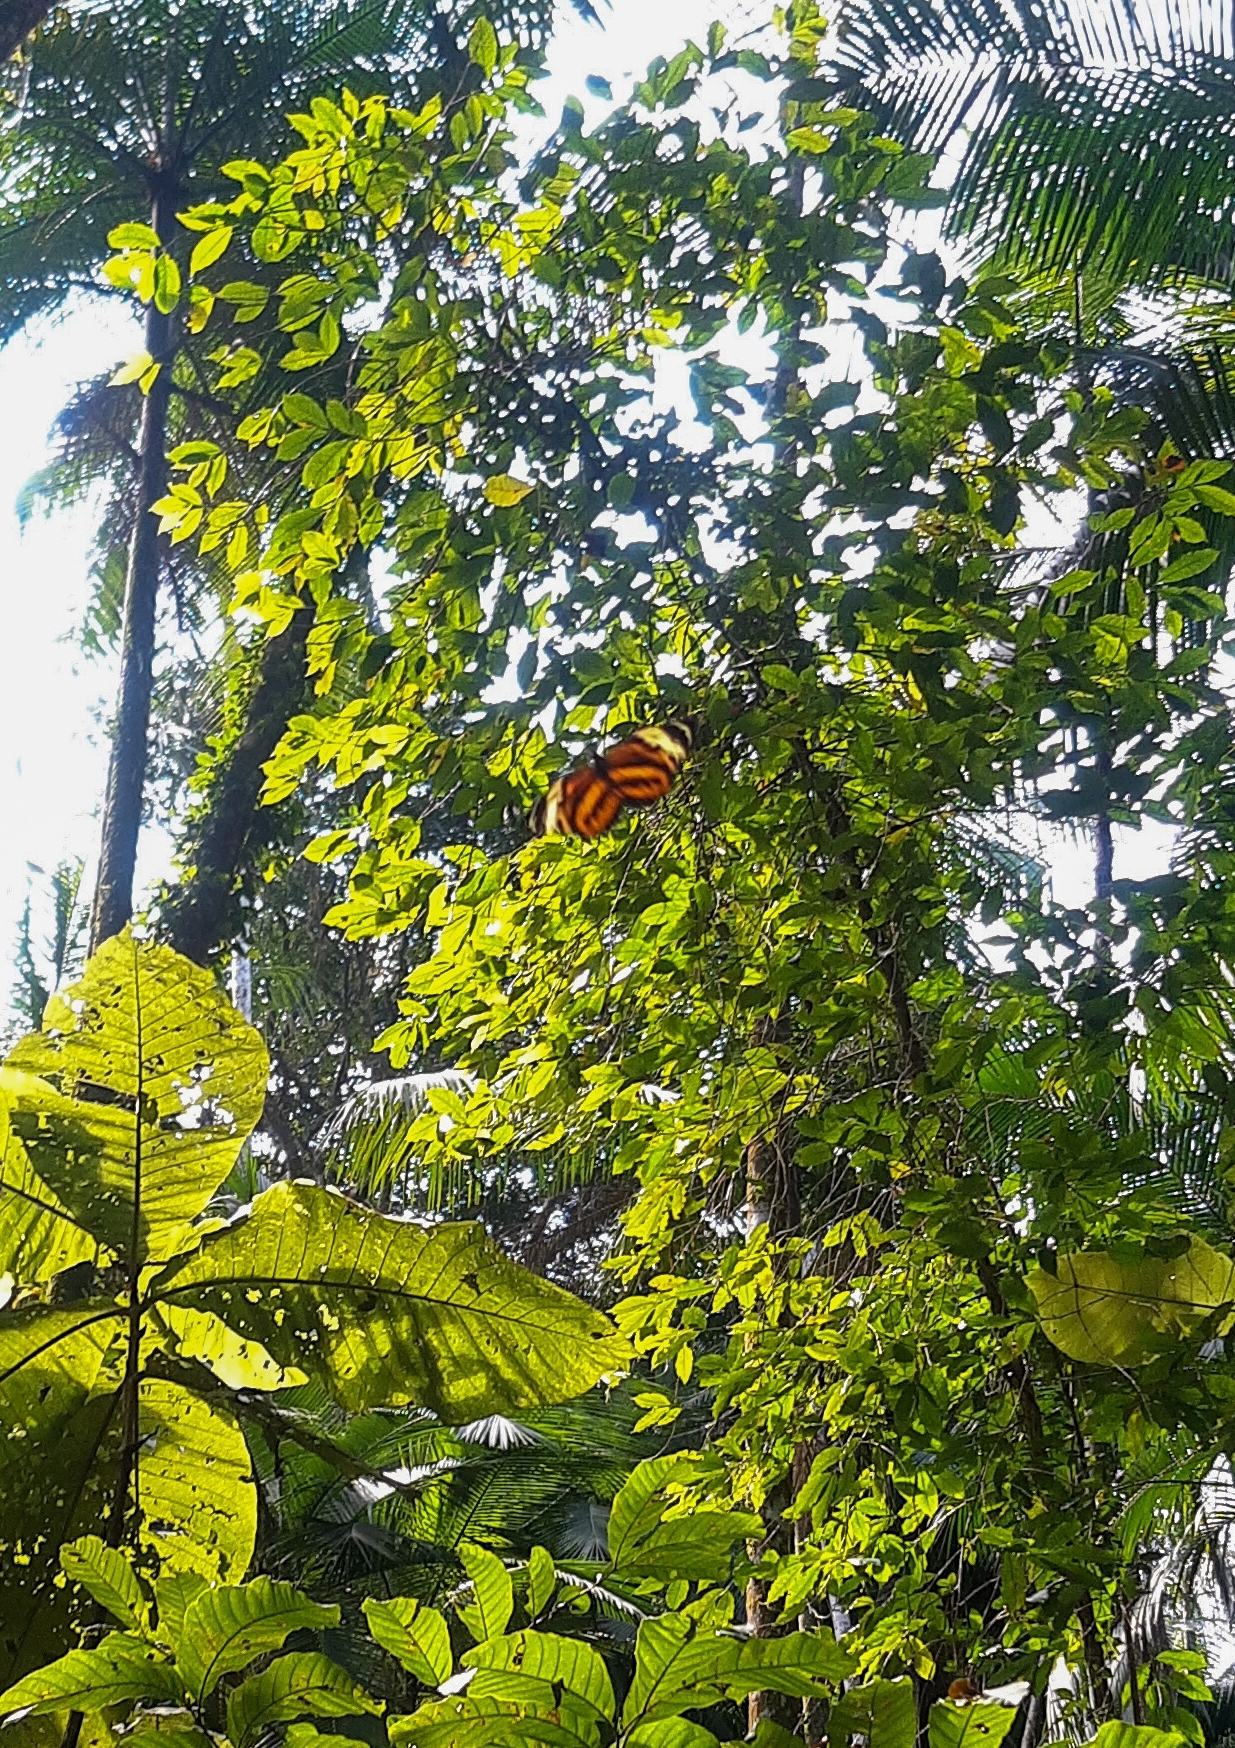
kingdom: Animalia
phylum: Arthropoda
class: Insecta
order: Lepidoptera
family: Nymphalidae
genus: Tithorea
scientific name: Tithorea harmonia
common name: Harmonia tigerwing
